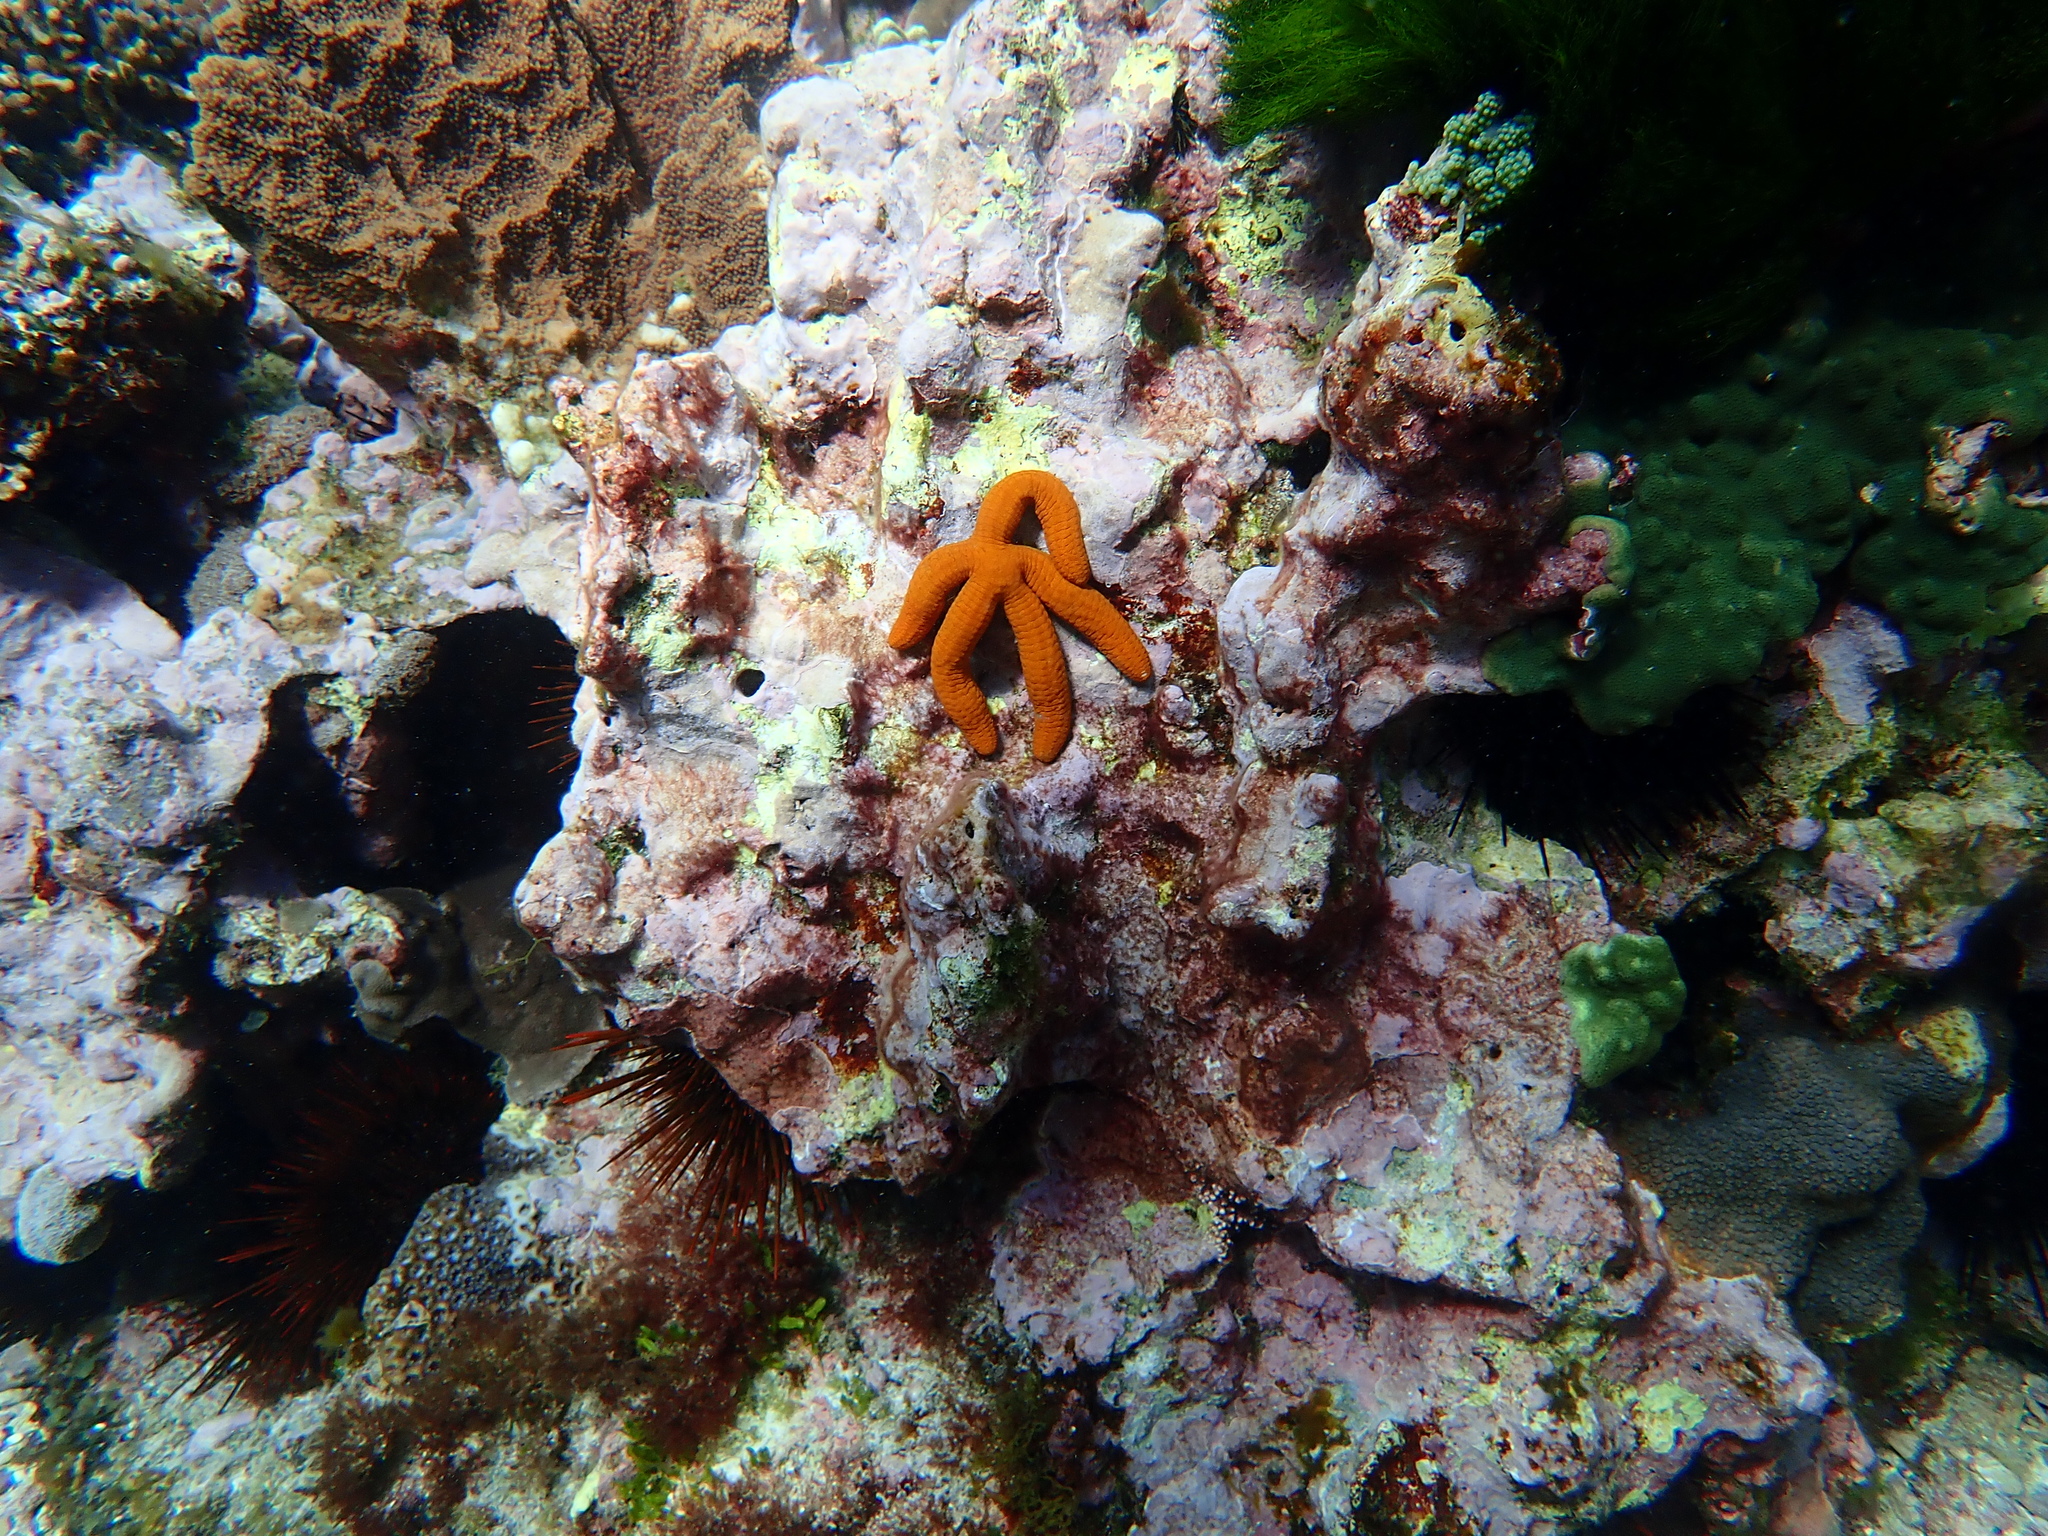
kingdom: Animalia
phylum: Echinodermata
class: Asteroidea
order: Valvatida
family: Ophidiasteridae
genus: Ophidiaster
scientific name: Ophidiaster confertus
